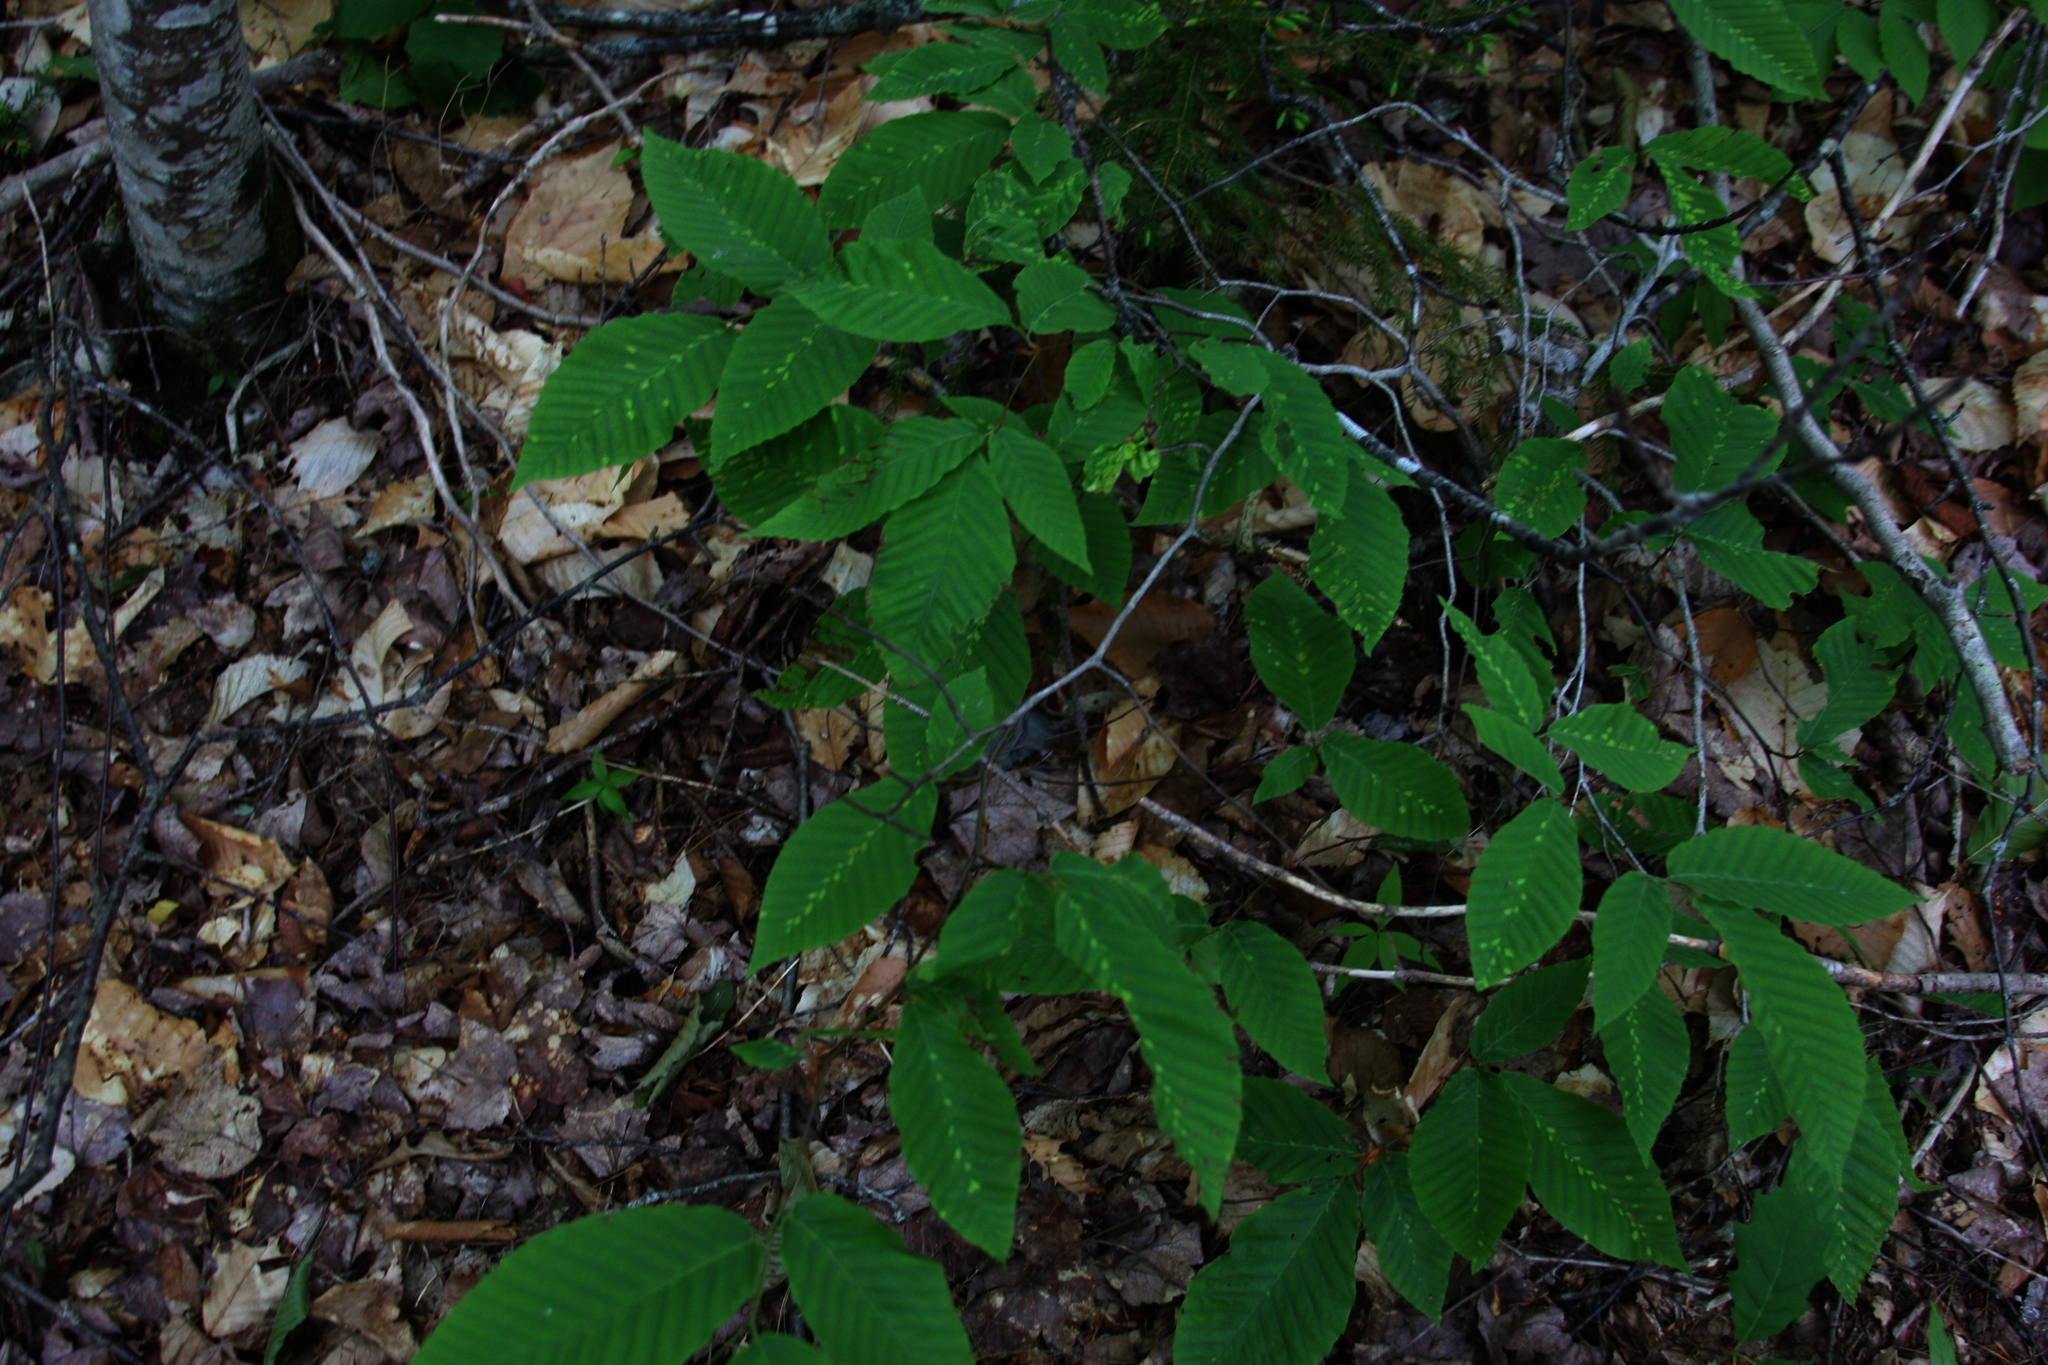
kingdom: Plantae
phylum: Tracheophyta
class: Magnoliopsida
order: Fagales
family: Fagaceae
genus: Fagus
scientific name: Fagus grandifolia
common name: American beech
